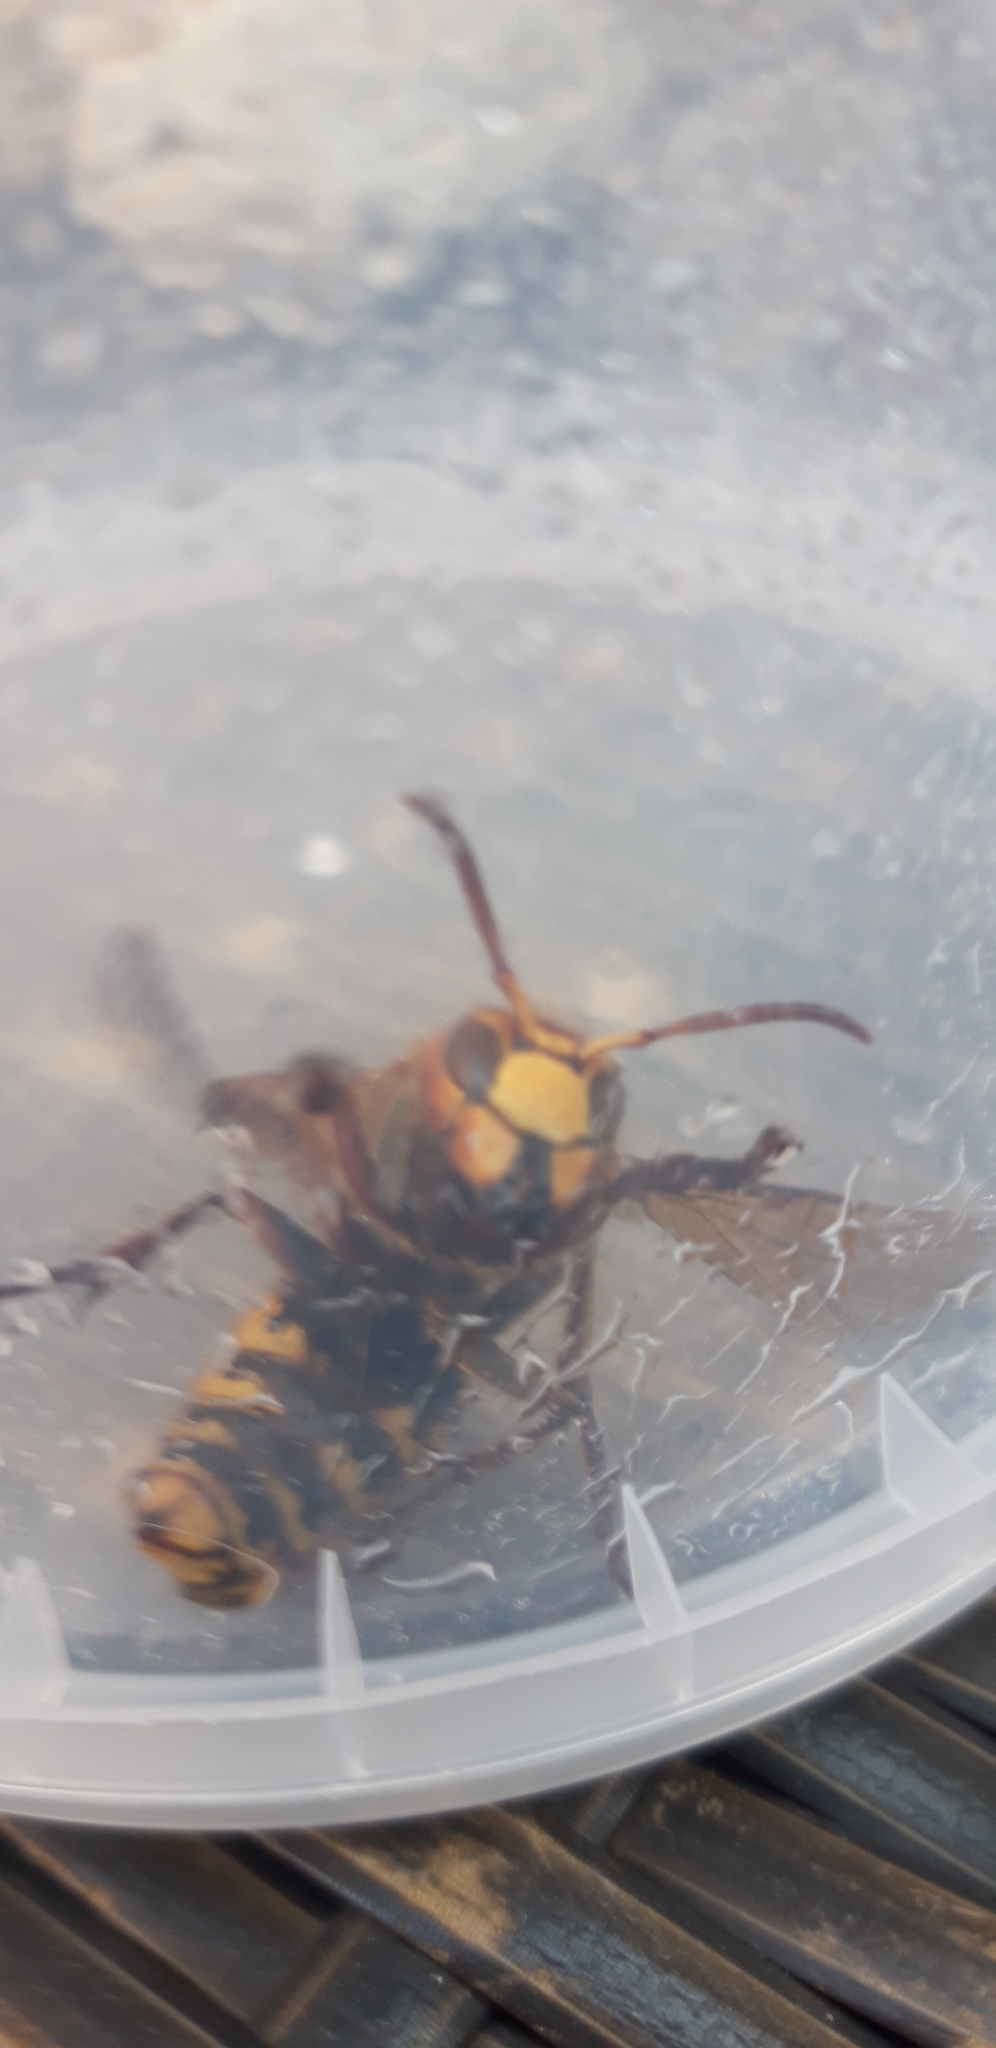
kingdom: Animalia
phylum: Arthropoda
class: Insecta
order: Hymenoptera
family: Vespidae
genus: Vespa
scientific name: Vespa crabro
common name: Hornet
